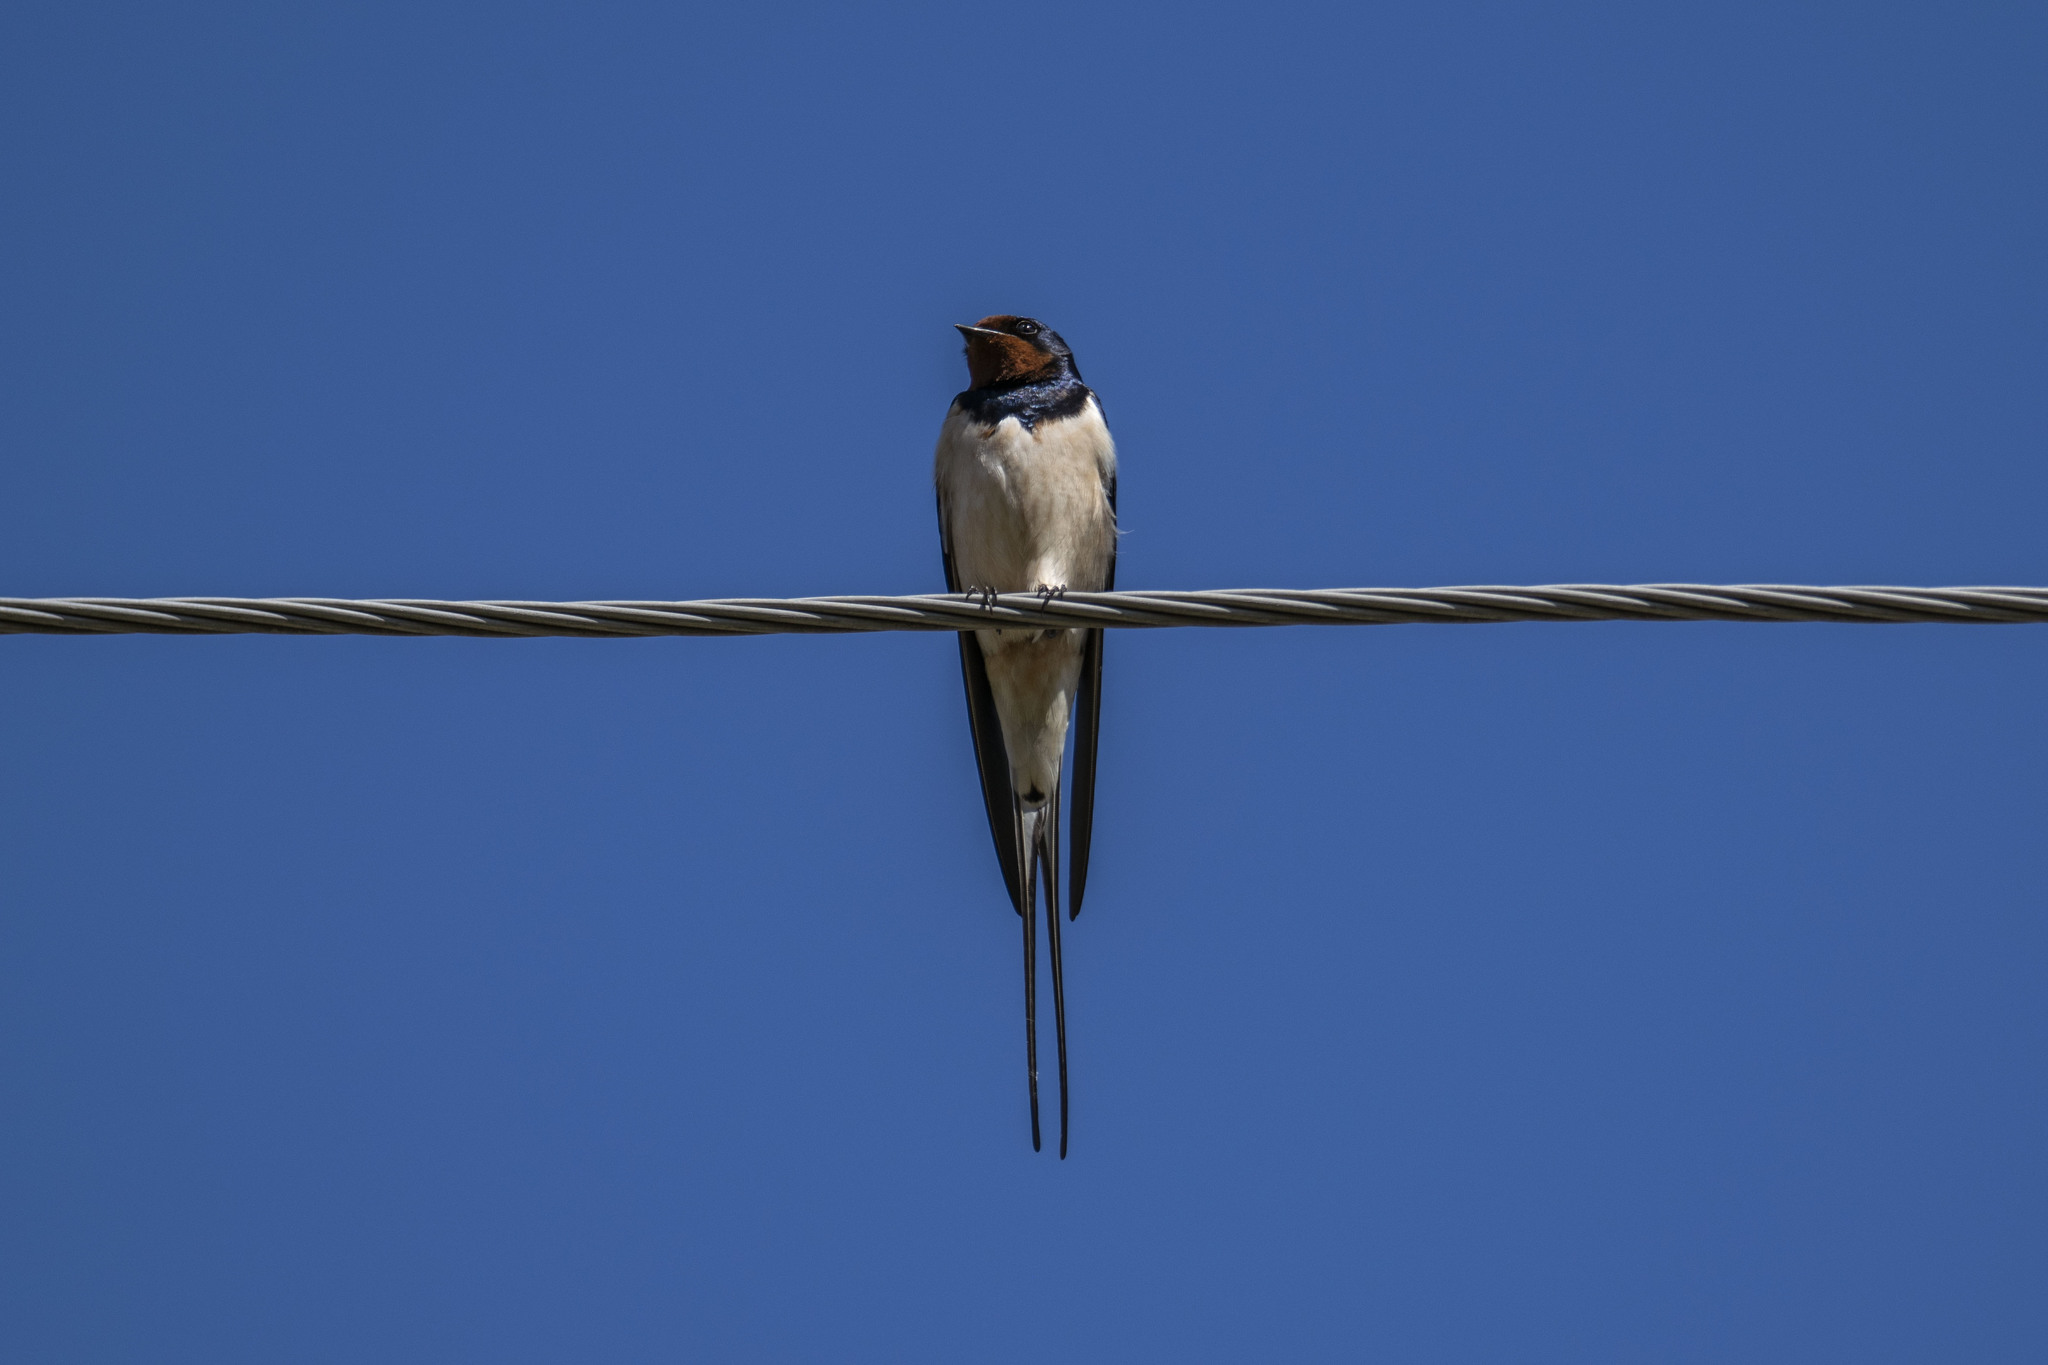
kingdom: Animalia
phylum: Chordata
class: Aves
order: Passeriformes
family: Hirundinidae
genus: Hirundo
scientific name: Hirundo rustica
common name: Barn swallow
